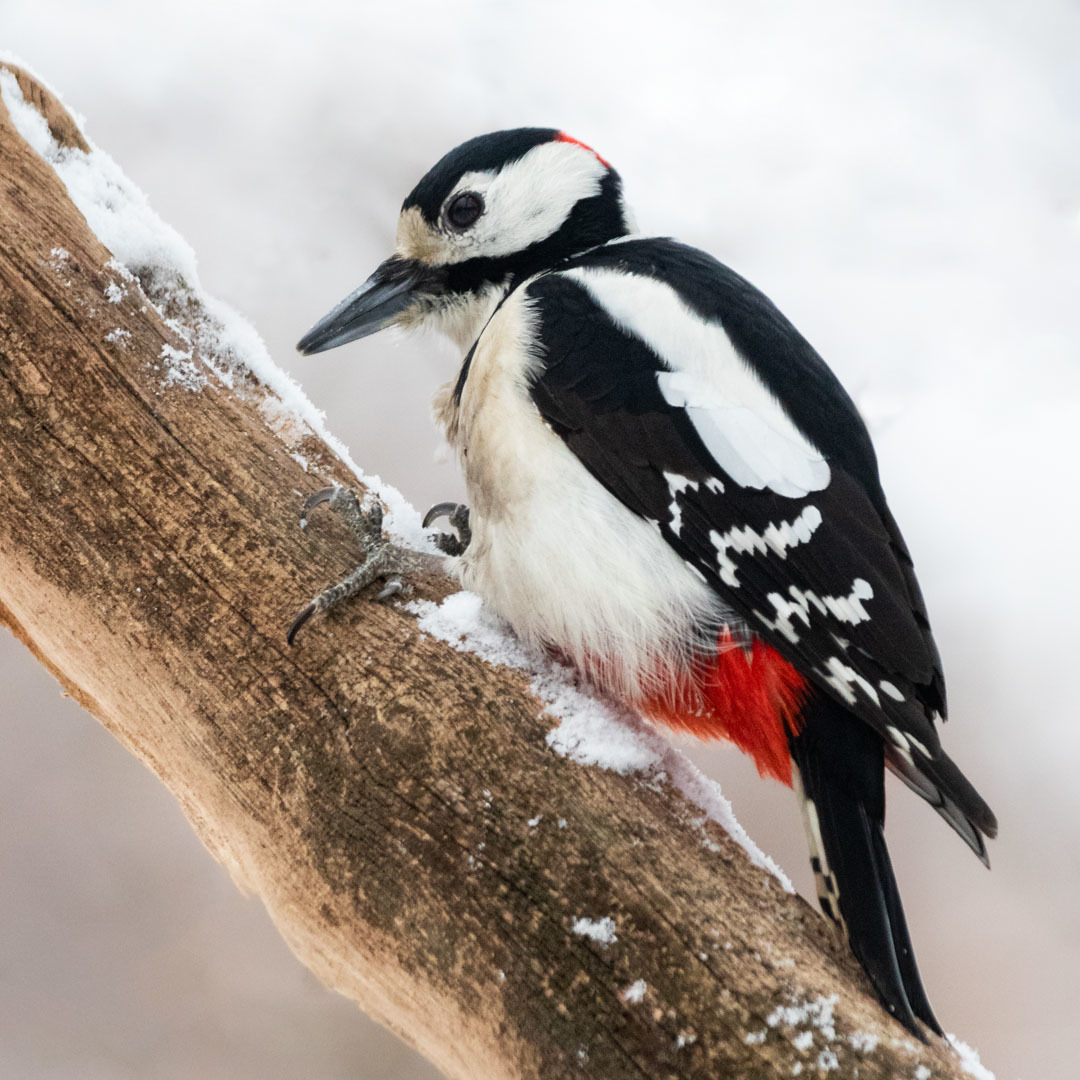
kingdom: Animalia
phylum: Chordata
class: Aves
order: Piciformes
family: Picidae
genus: Dendrocopos
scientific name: Dendrocopos major
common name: Great spotted woodpecker
